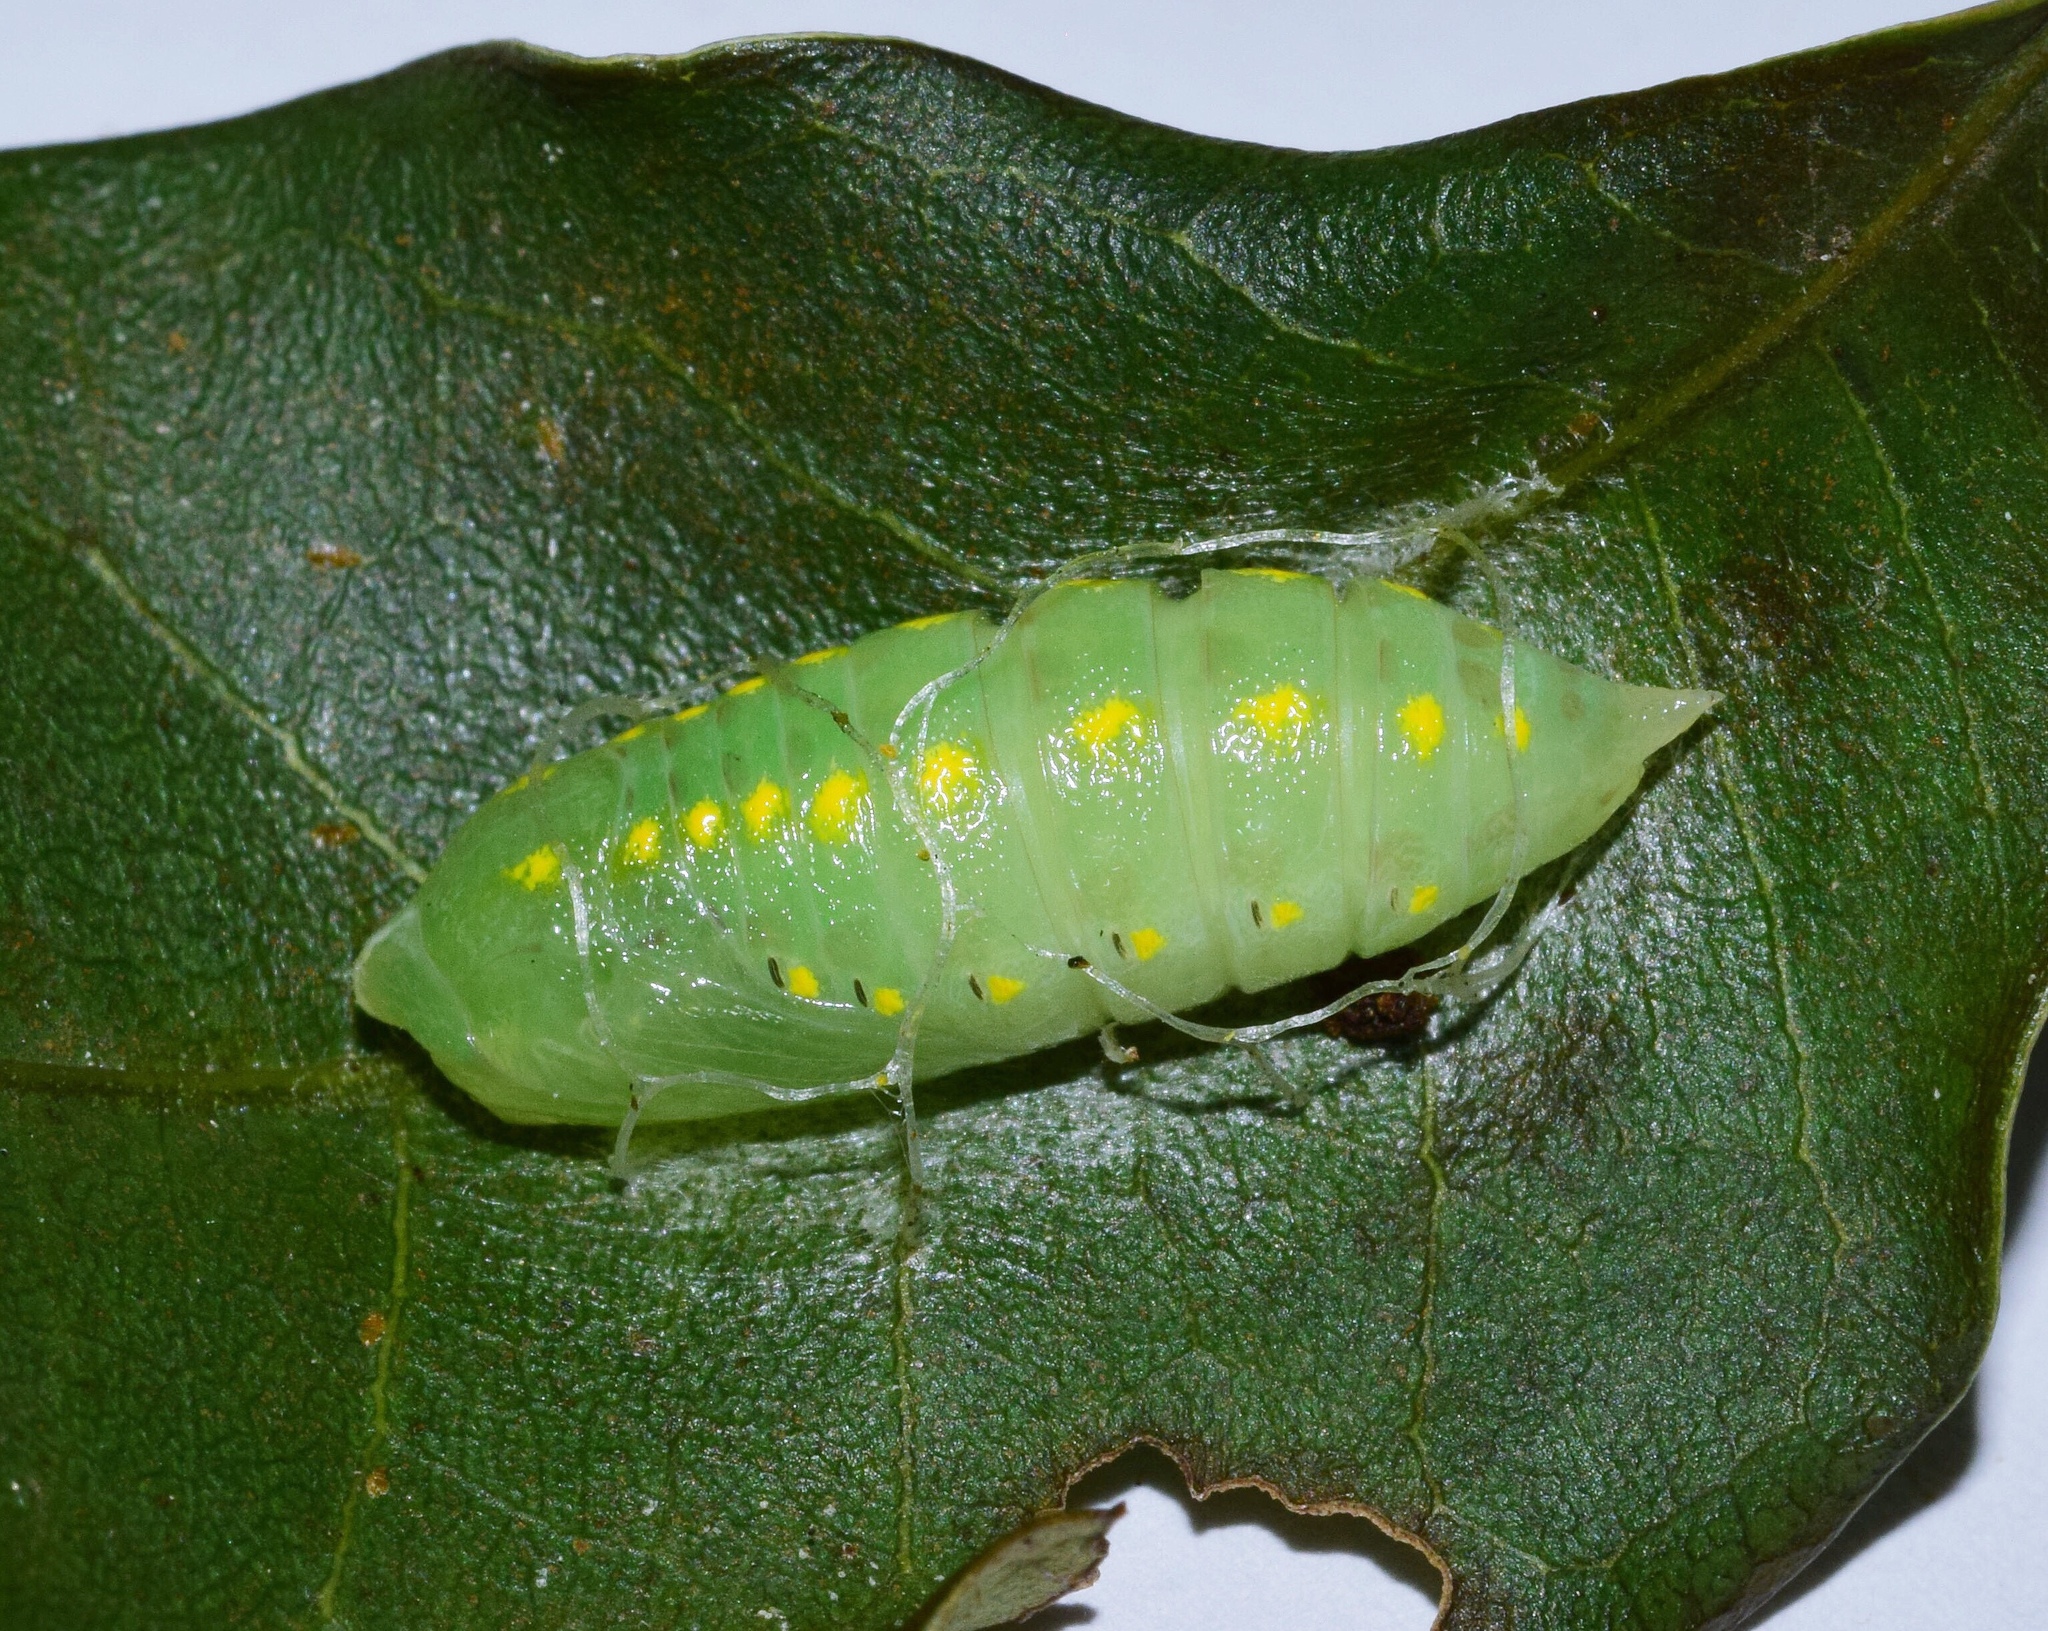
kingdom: Animalia
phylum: Arthropoda
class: Insecta
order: Lepidoptera
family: Notodontidae
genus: Rhenea
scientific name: Rhenea michii
